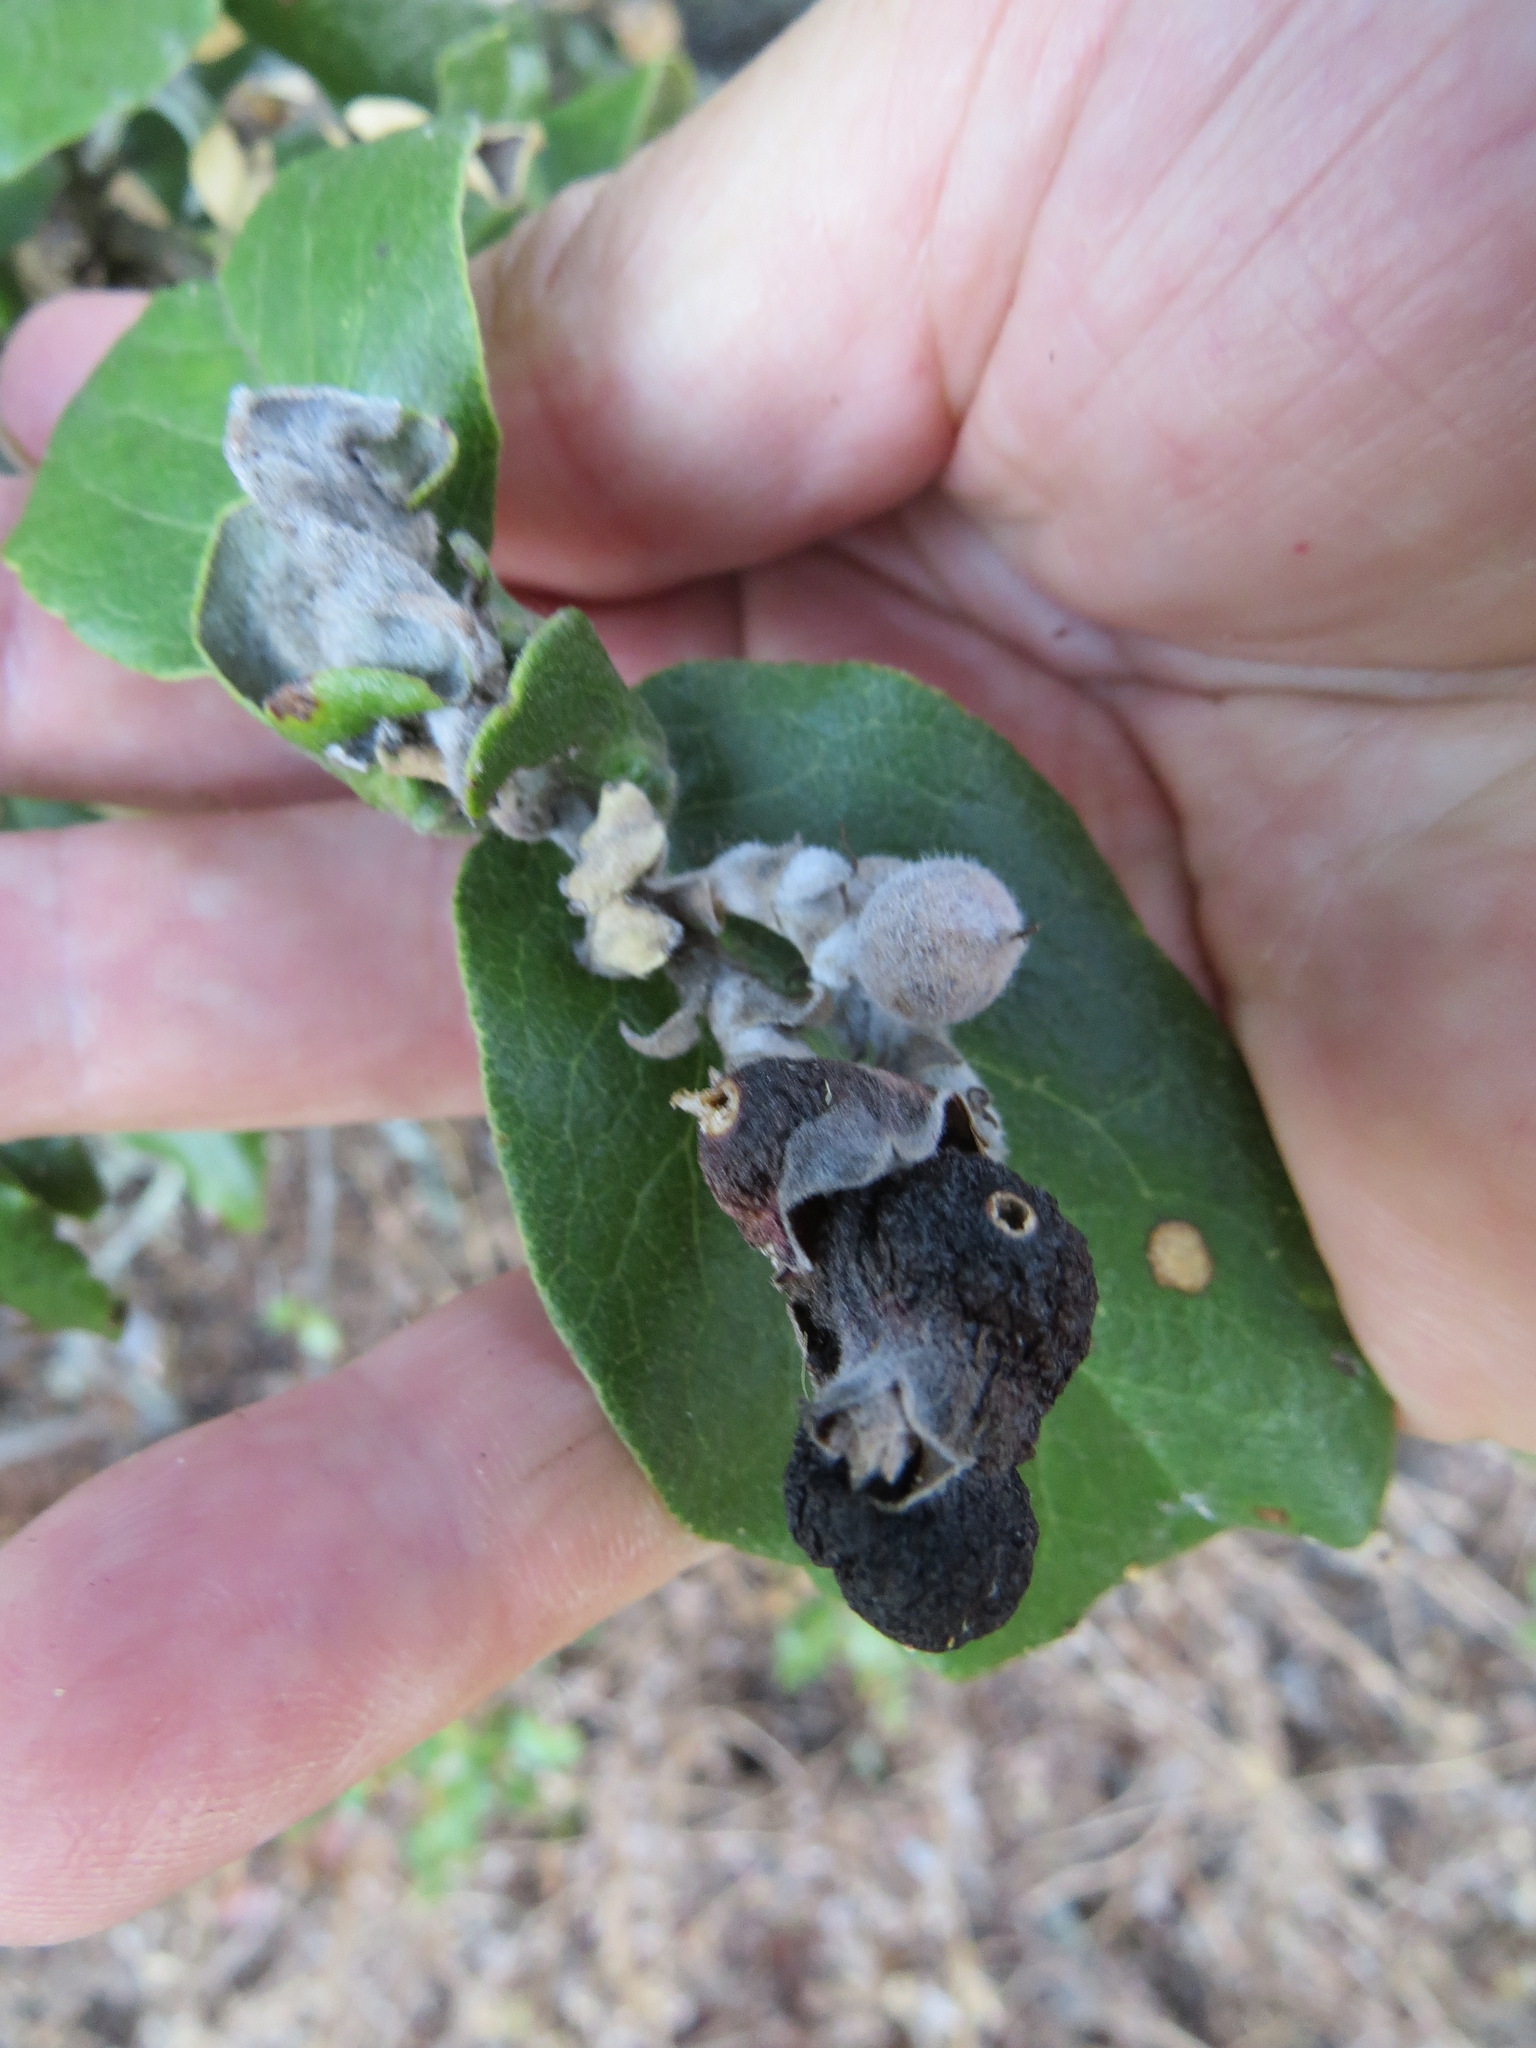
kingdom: Animalia
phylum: Arthropoda
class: Insecta
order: Diptera
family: Cecidomyiidae
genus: Asphondylia
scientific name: Asphondylia garryae
